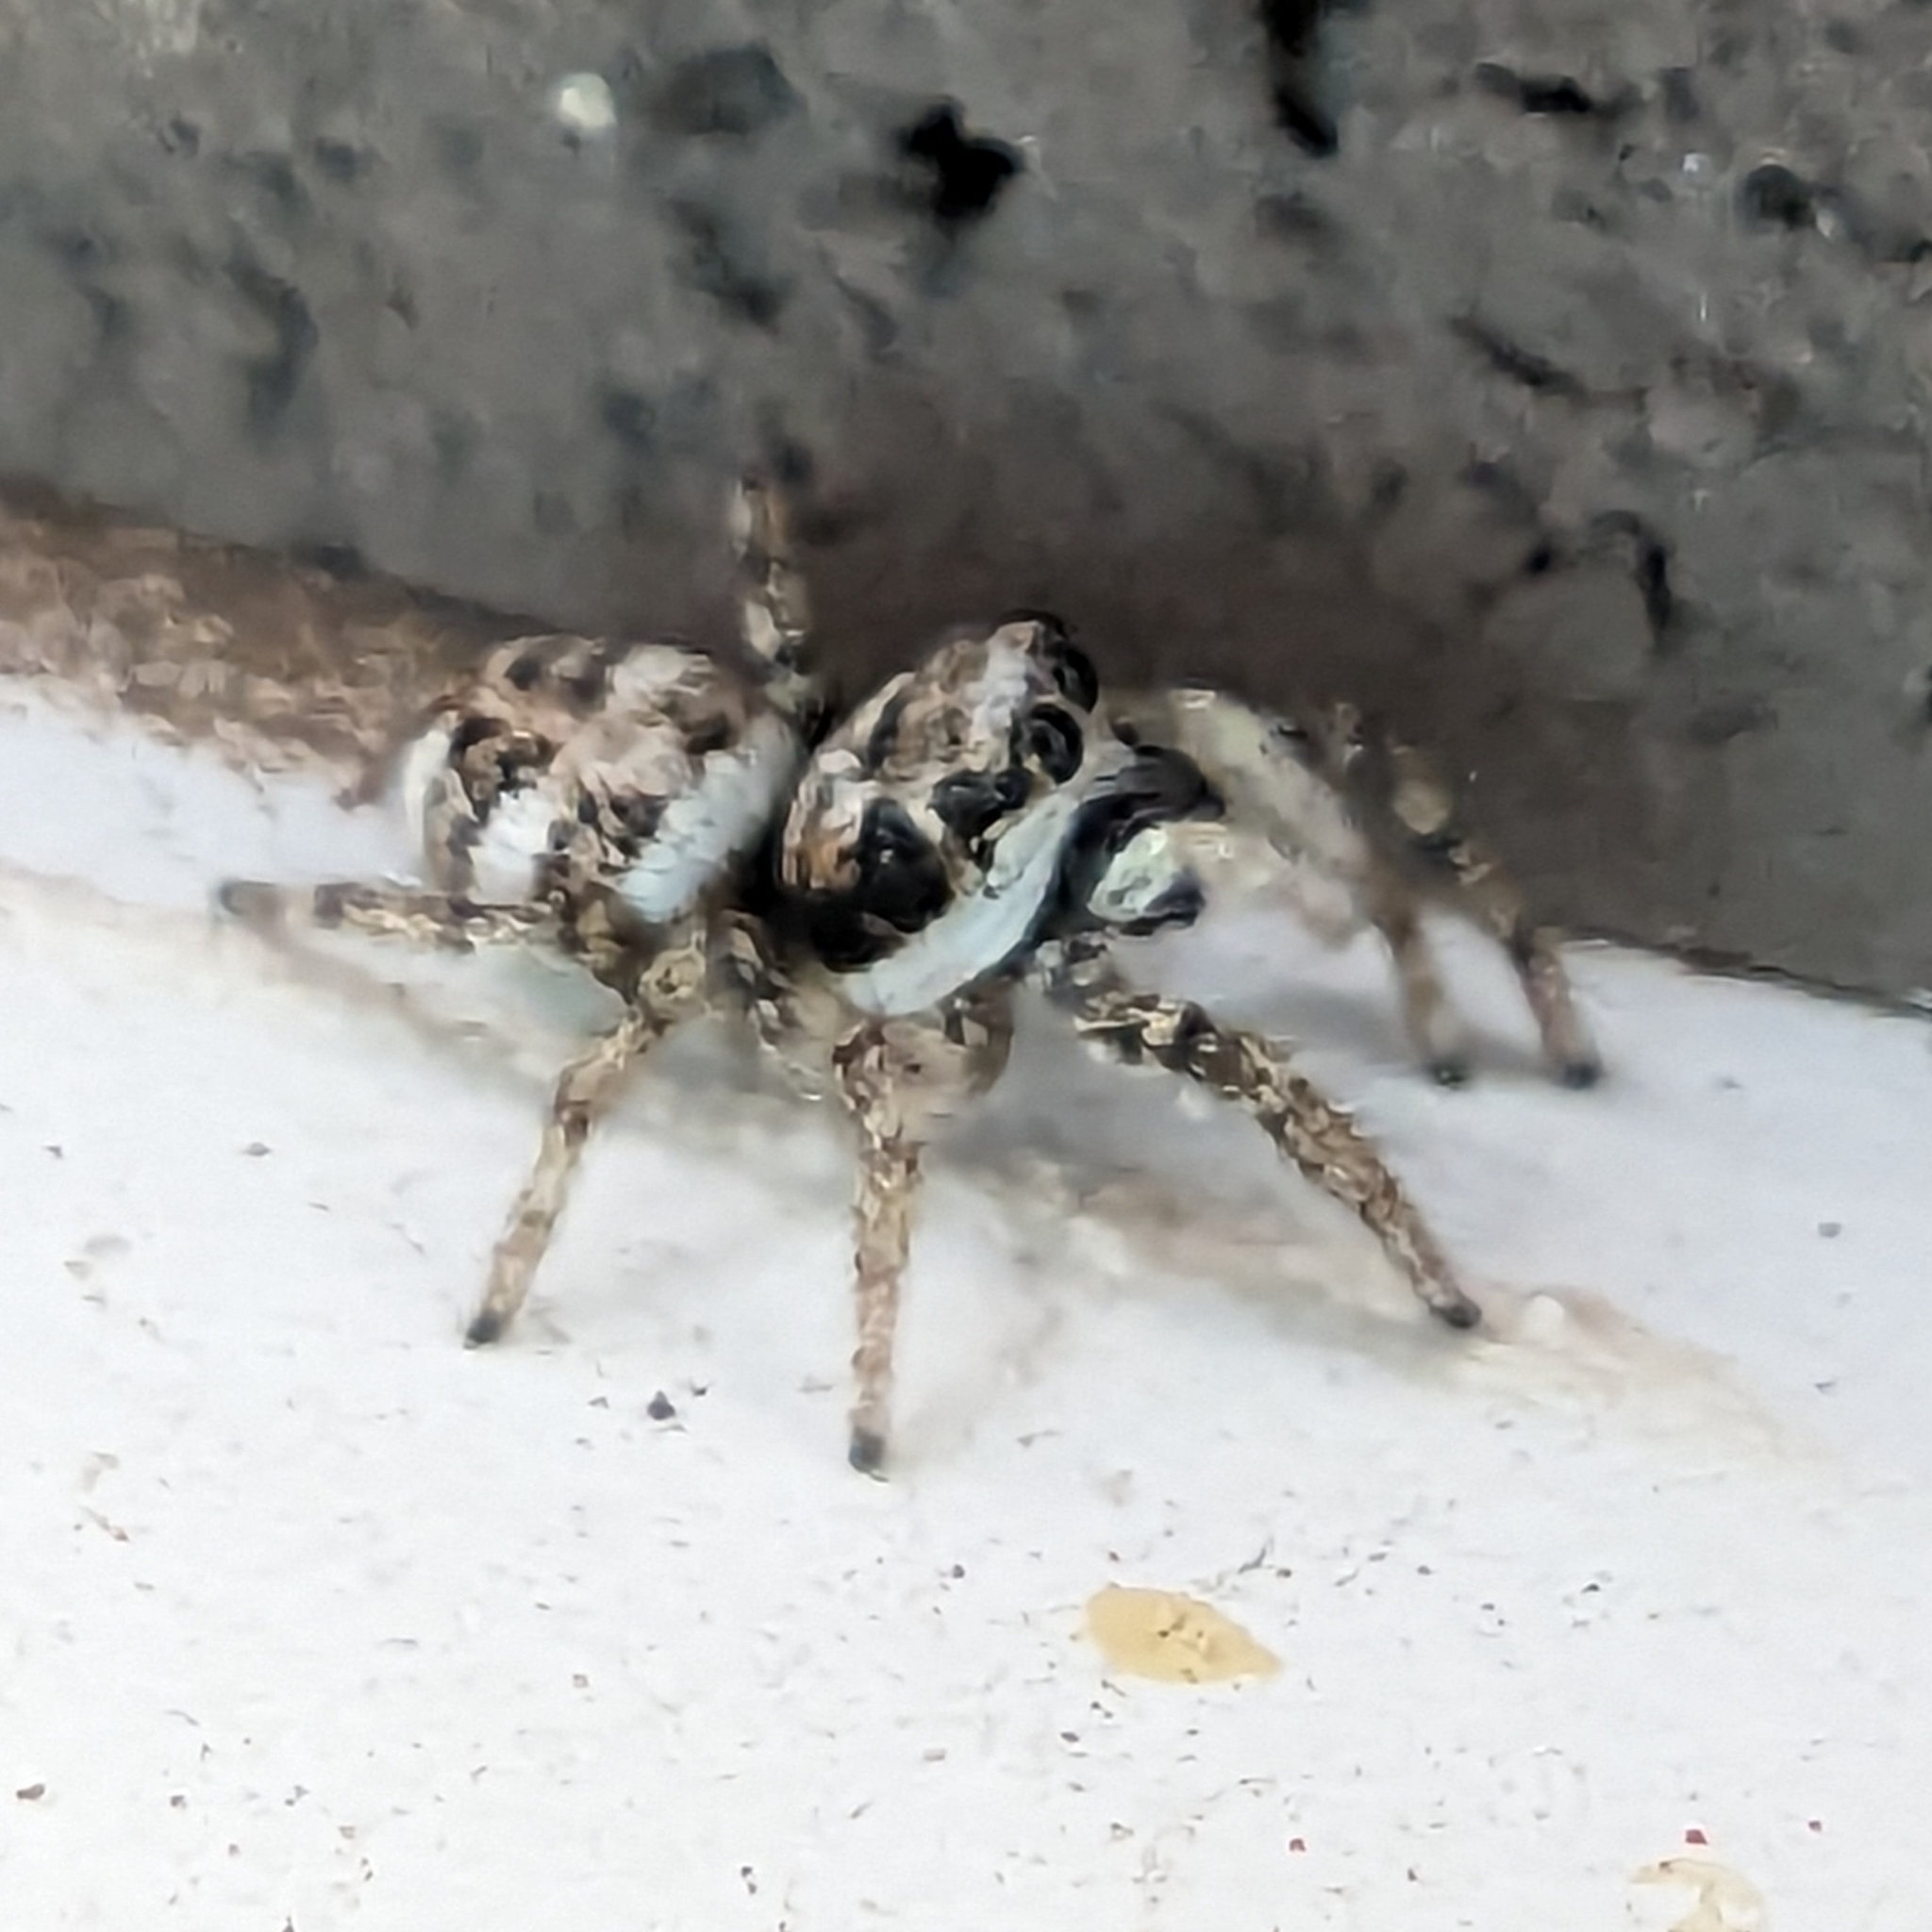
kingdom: Animalia
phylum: Arthropoda
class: Arachnida
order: Araneae
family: Salticidae
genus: Salticus
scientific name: Salticus scenicus
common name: Zebra jumper
